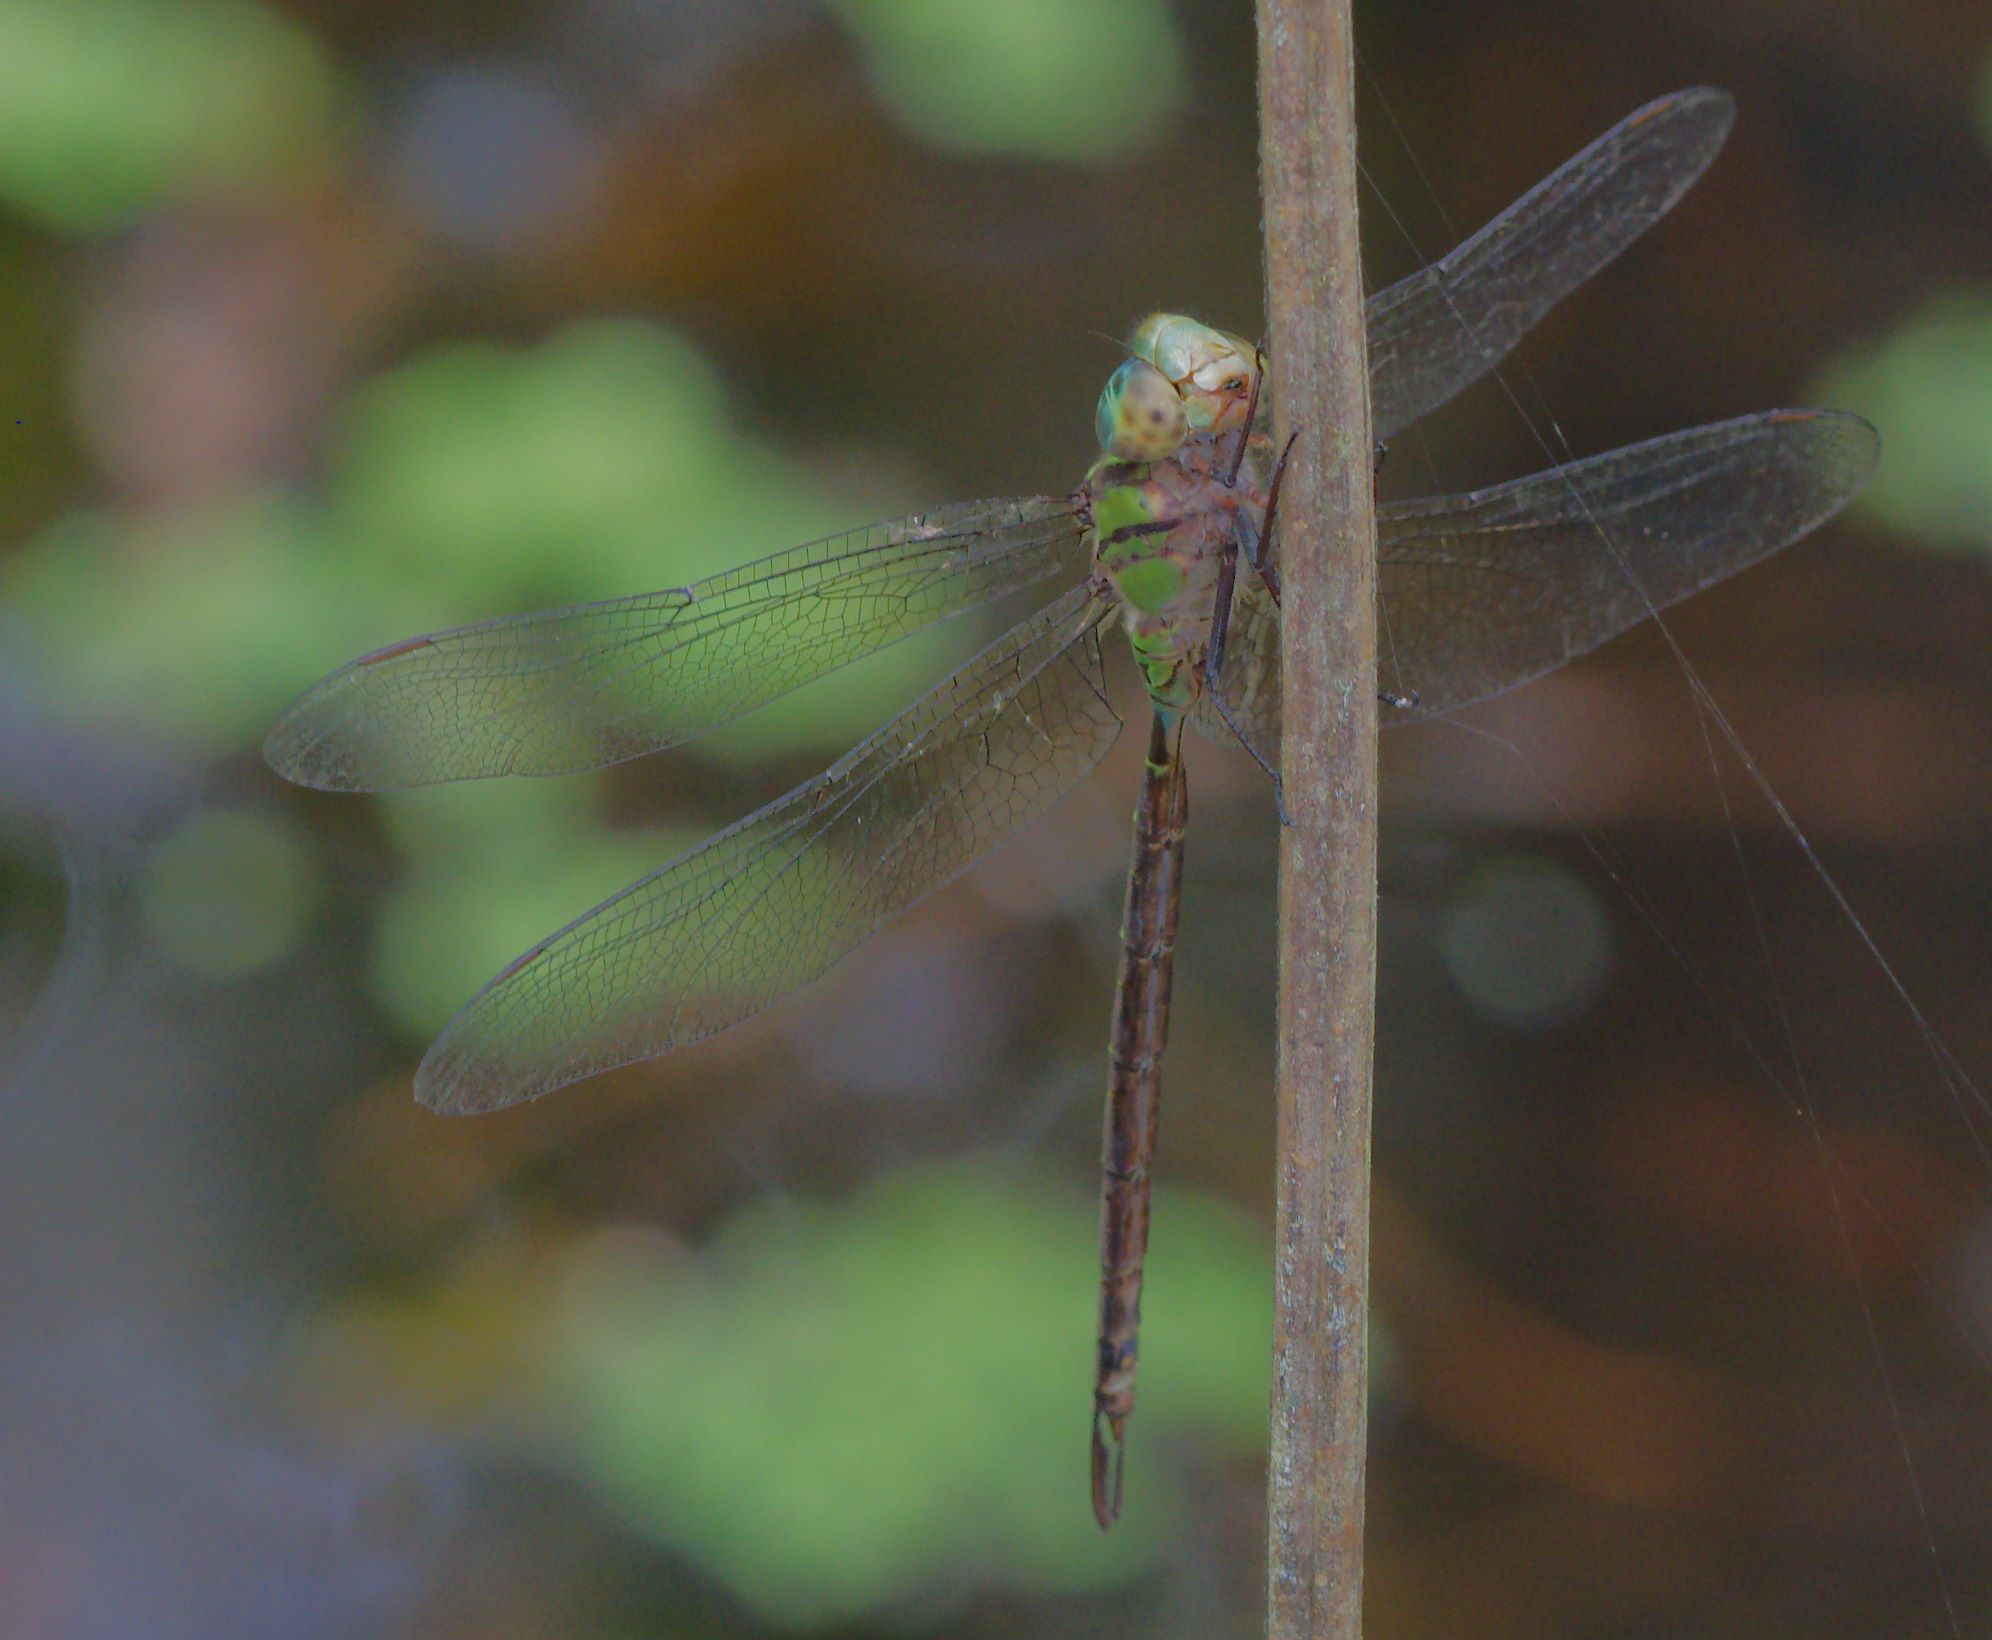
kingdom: Animalia
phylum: Arthropoda
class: Insecta
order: Odonata
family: Aeshnidae
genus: Triacanthagyna
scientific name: Triacanthagyna trifida
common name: Phantom darner
